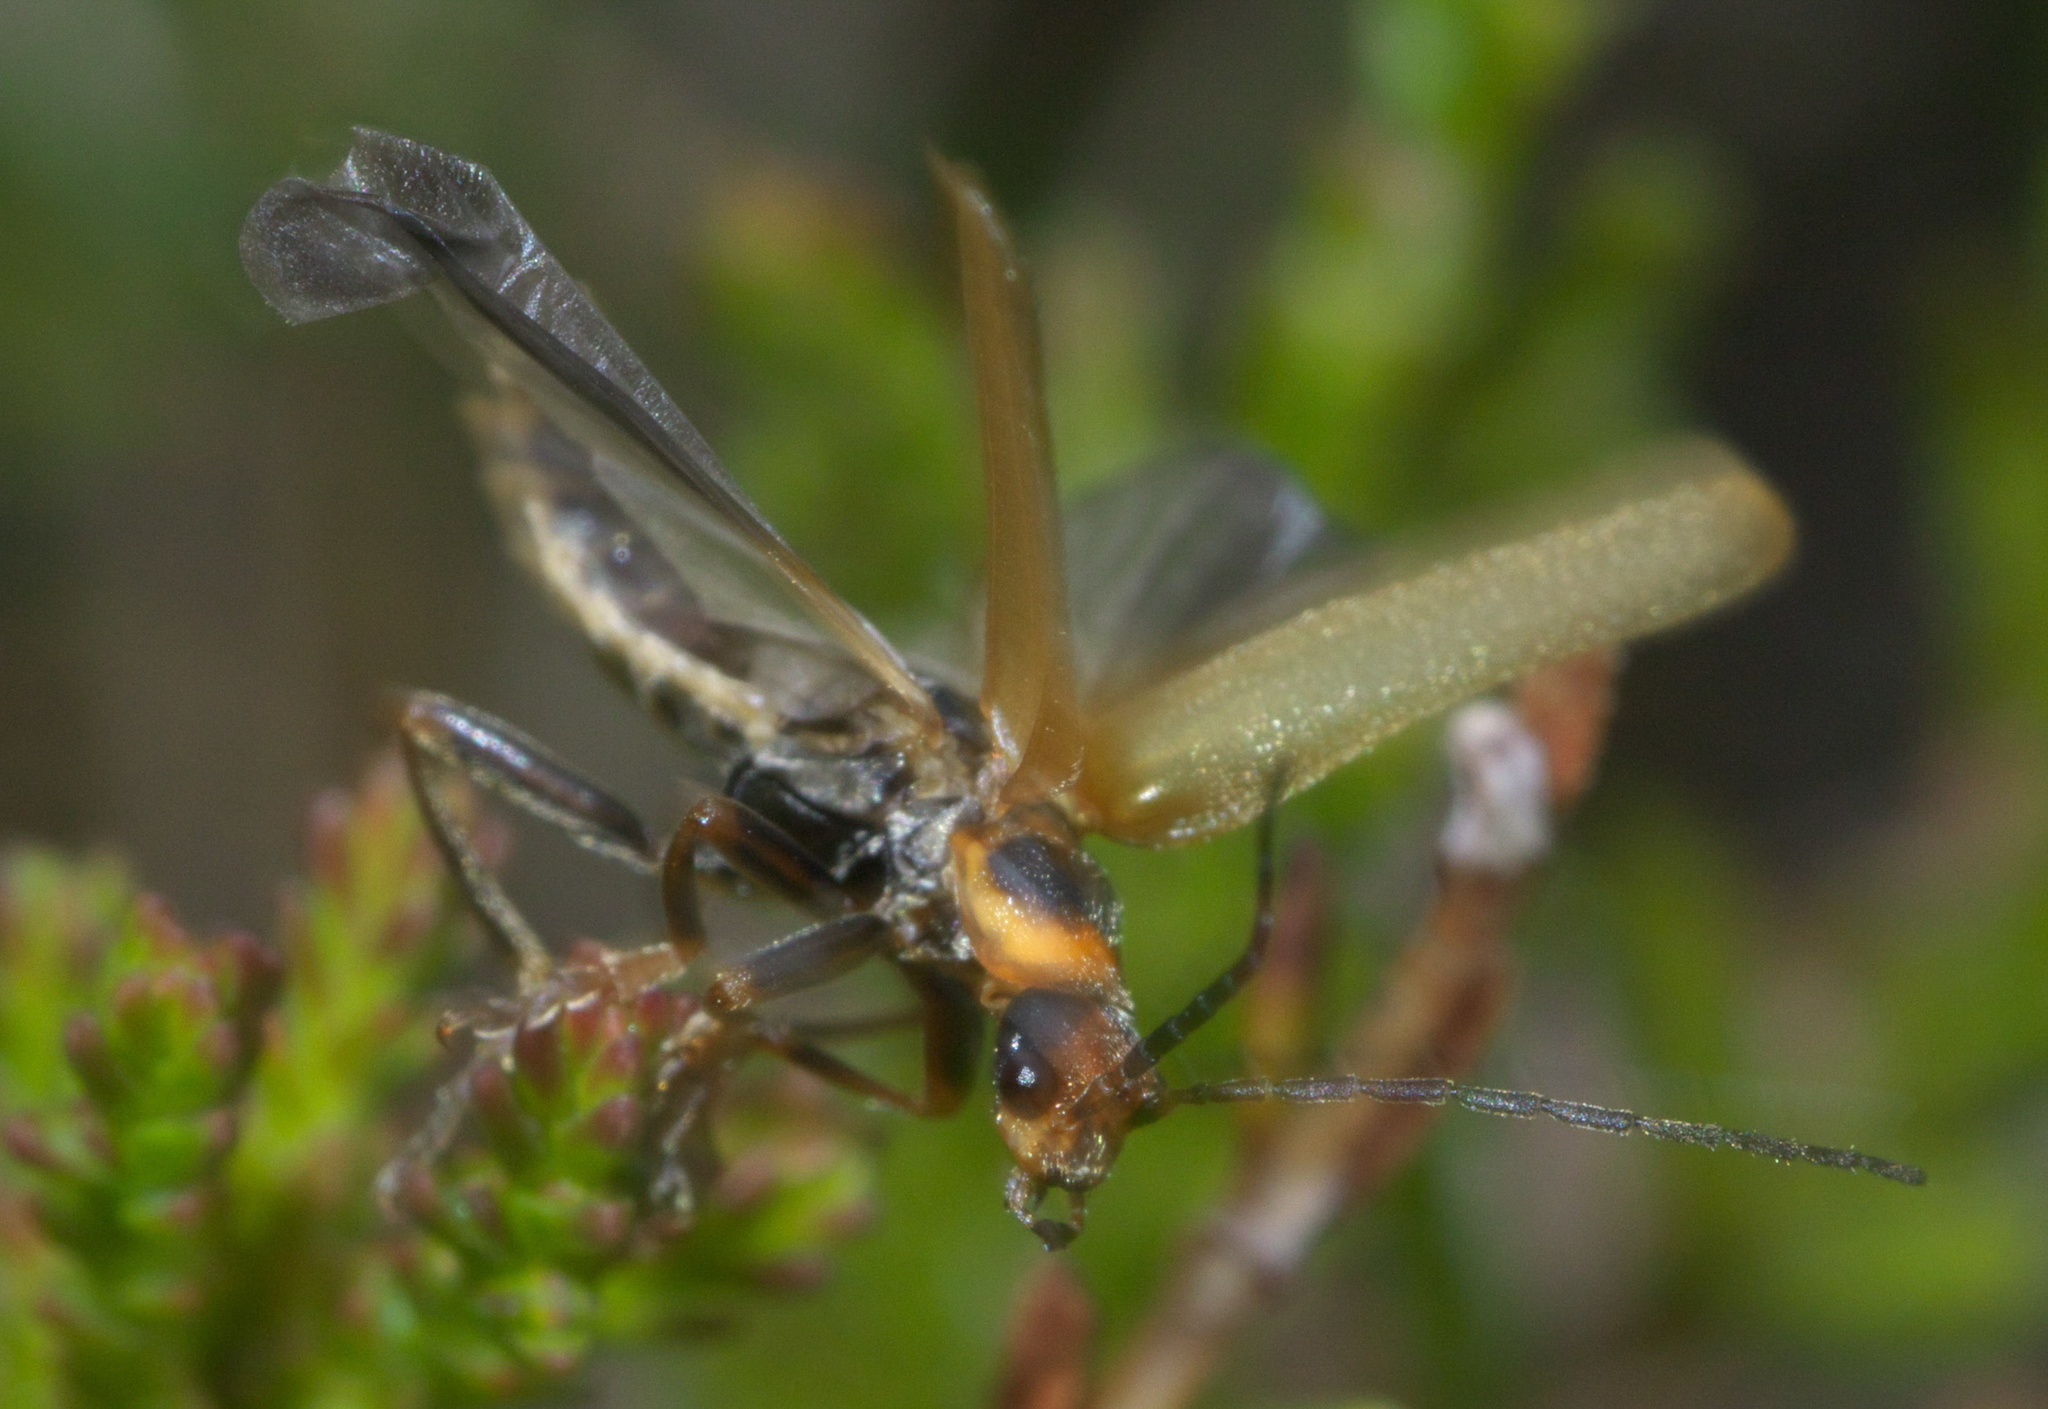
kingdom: Animalia
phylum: Arthropoda
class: Insecta
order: Coleoptera
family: Cantharidae
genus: Cantharis
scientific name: Cantharis figurata
